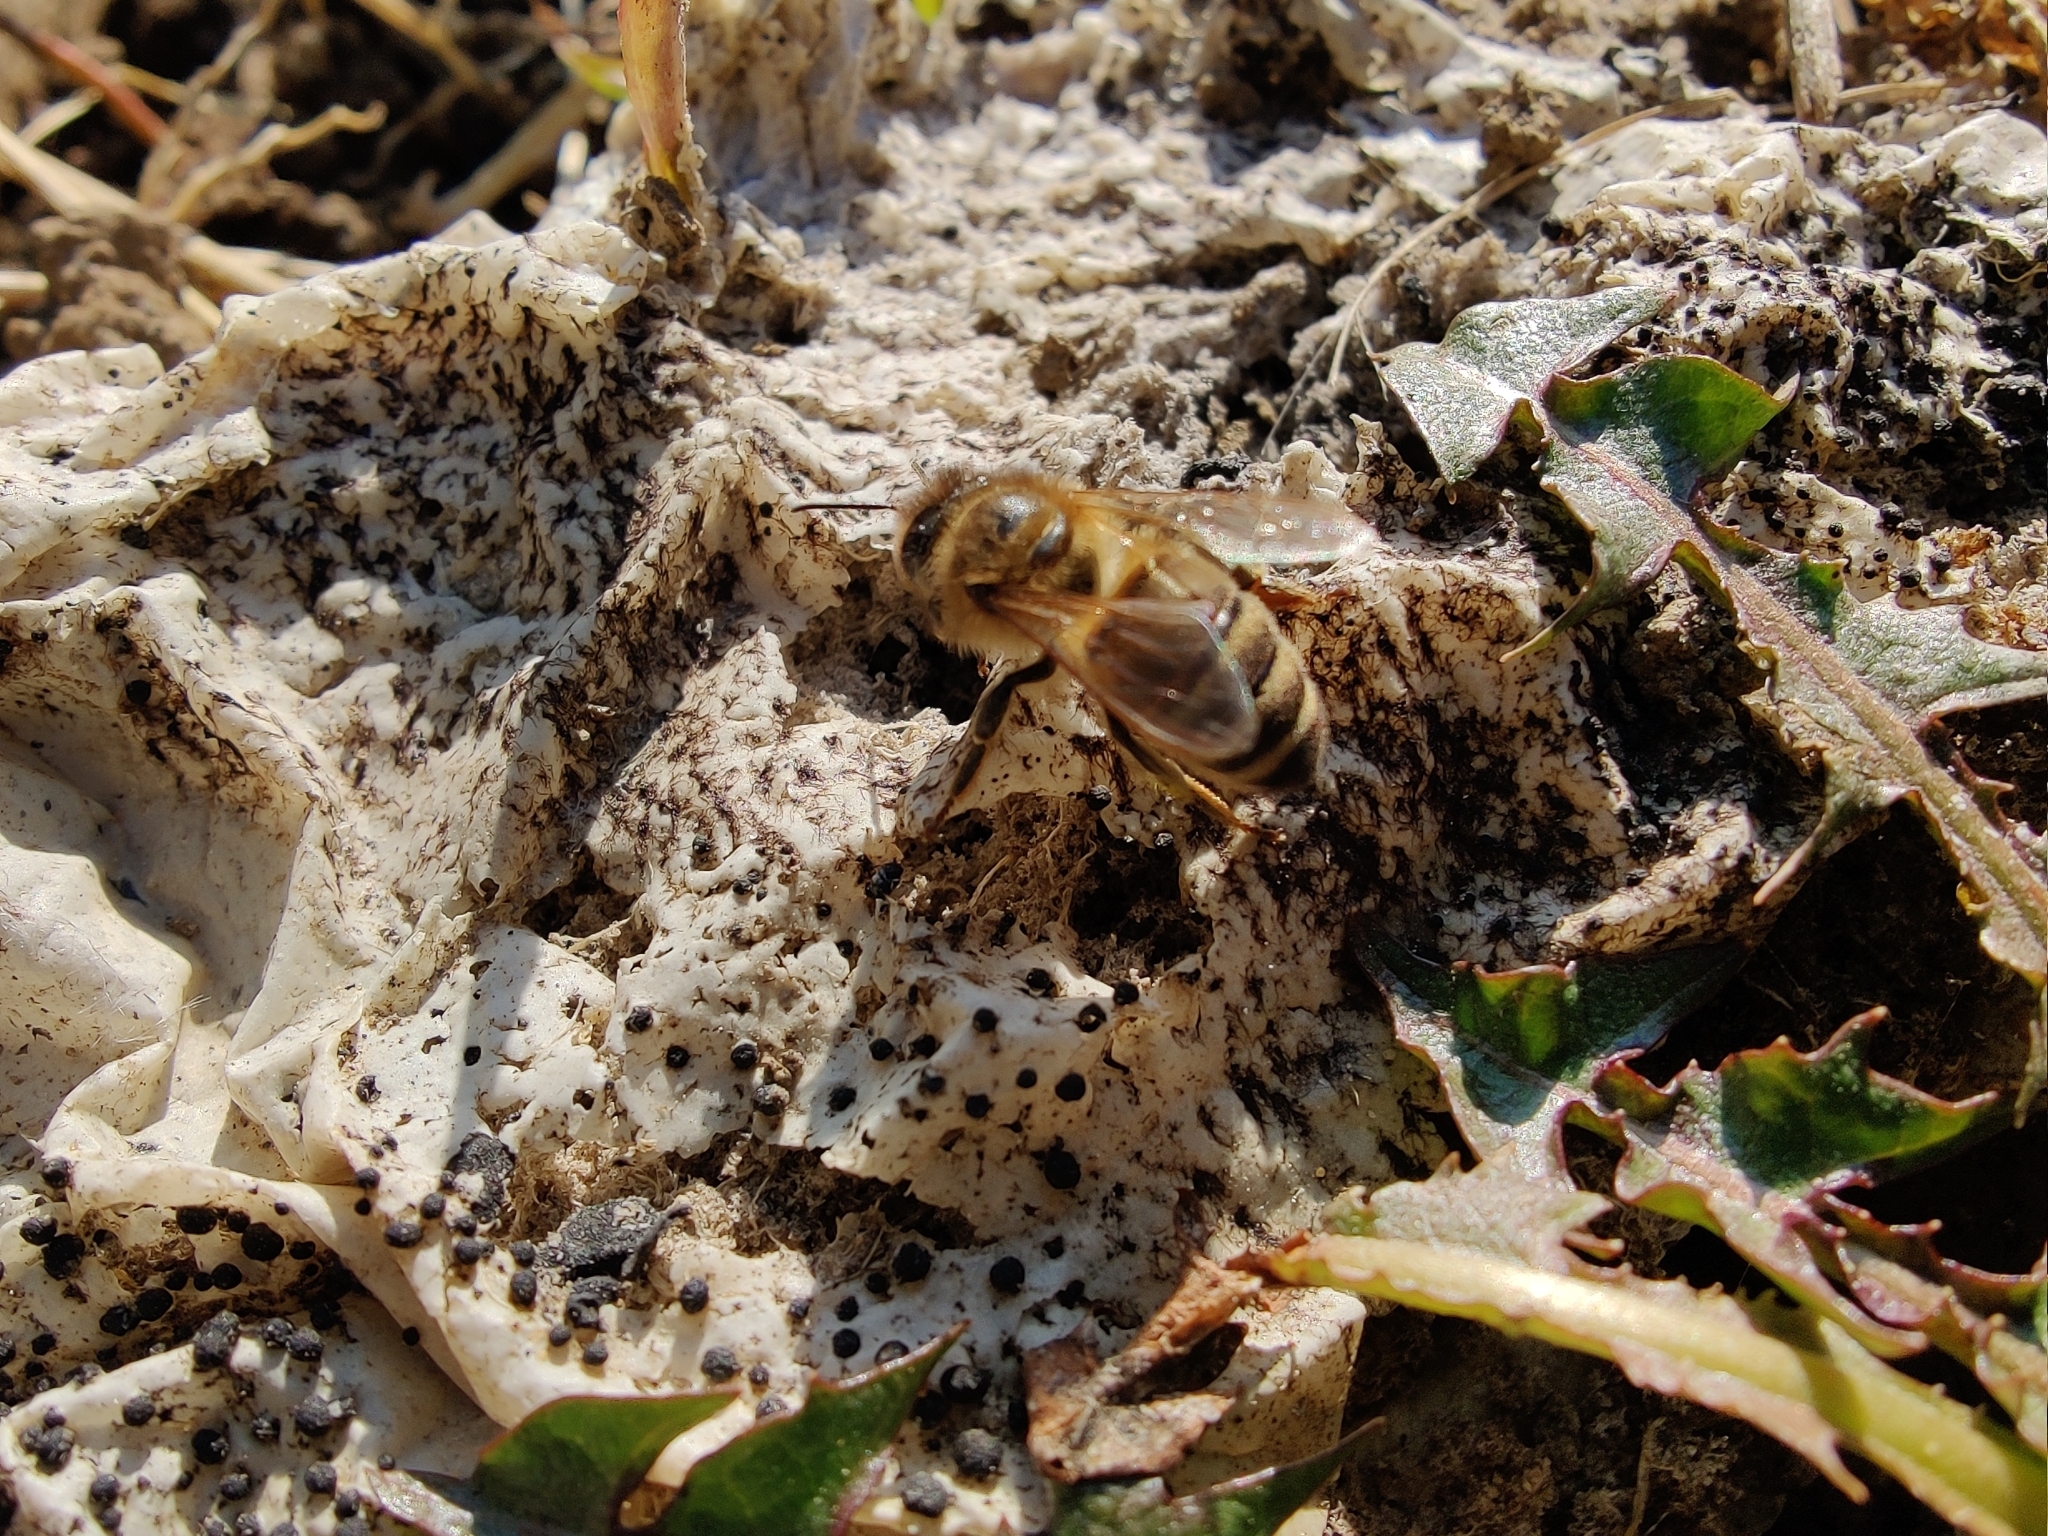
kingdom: Animalia
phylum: Arthropoda
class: Insecta
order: Hymenoptera
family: Apidae
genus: Apis
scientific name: Apis mellifera
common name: Honey bee
